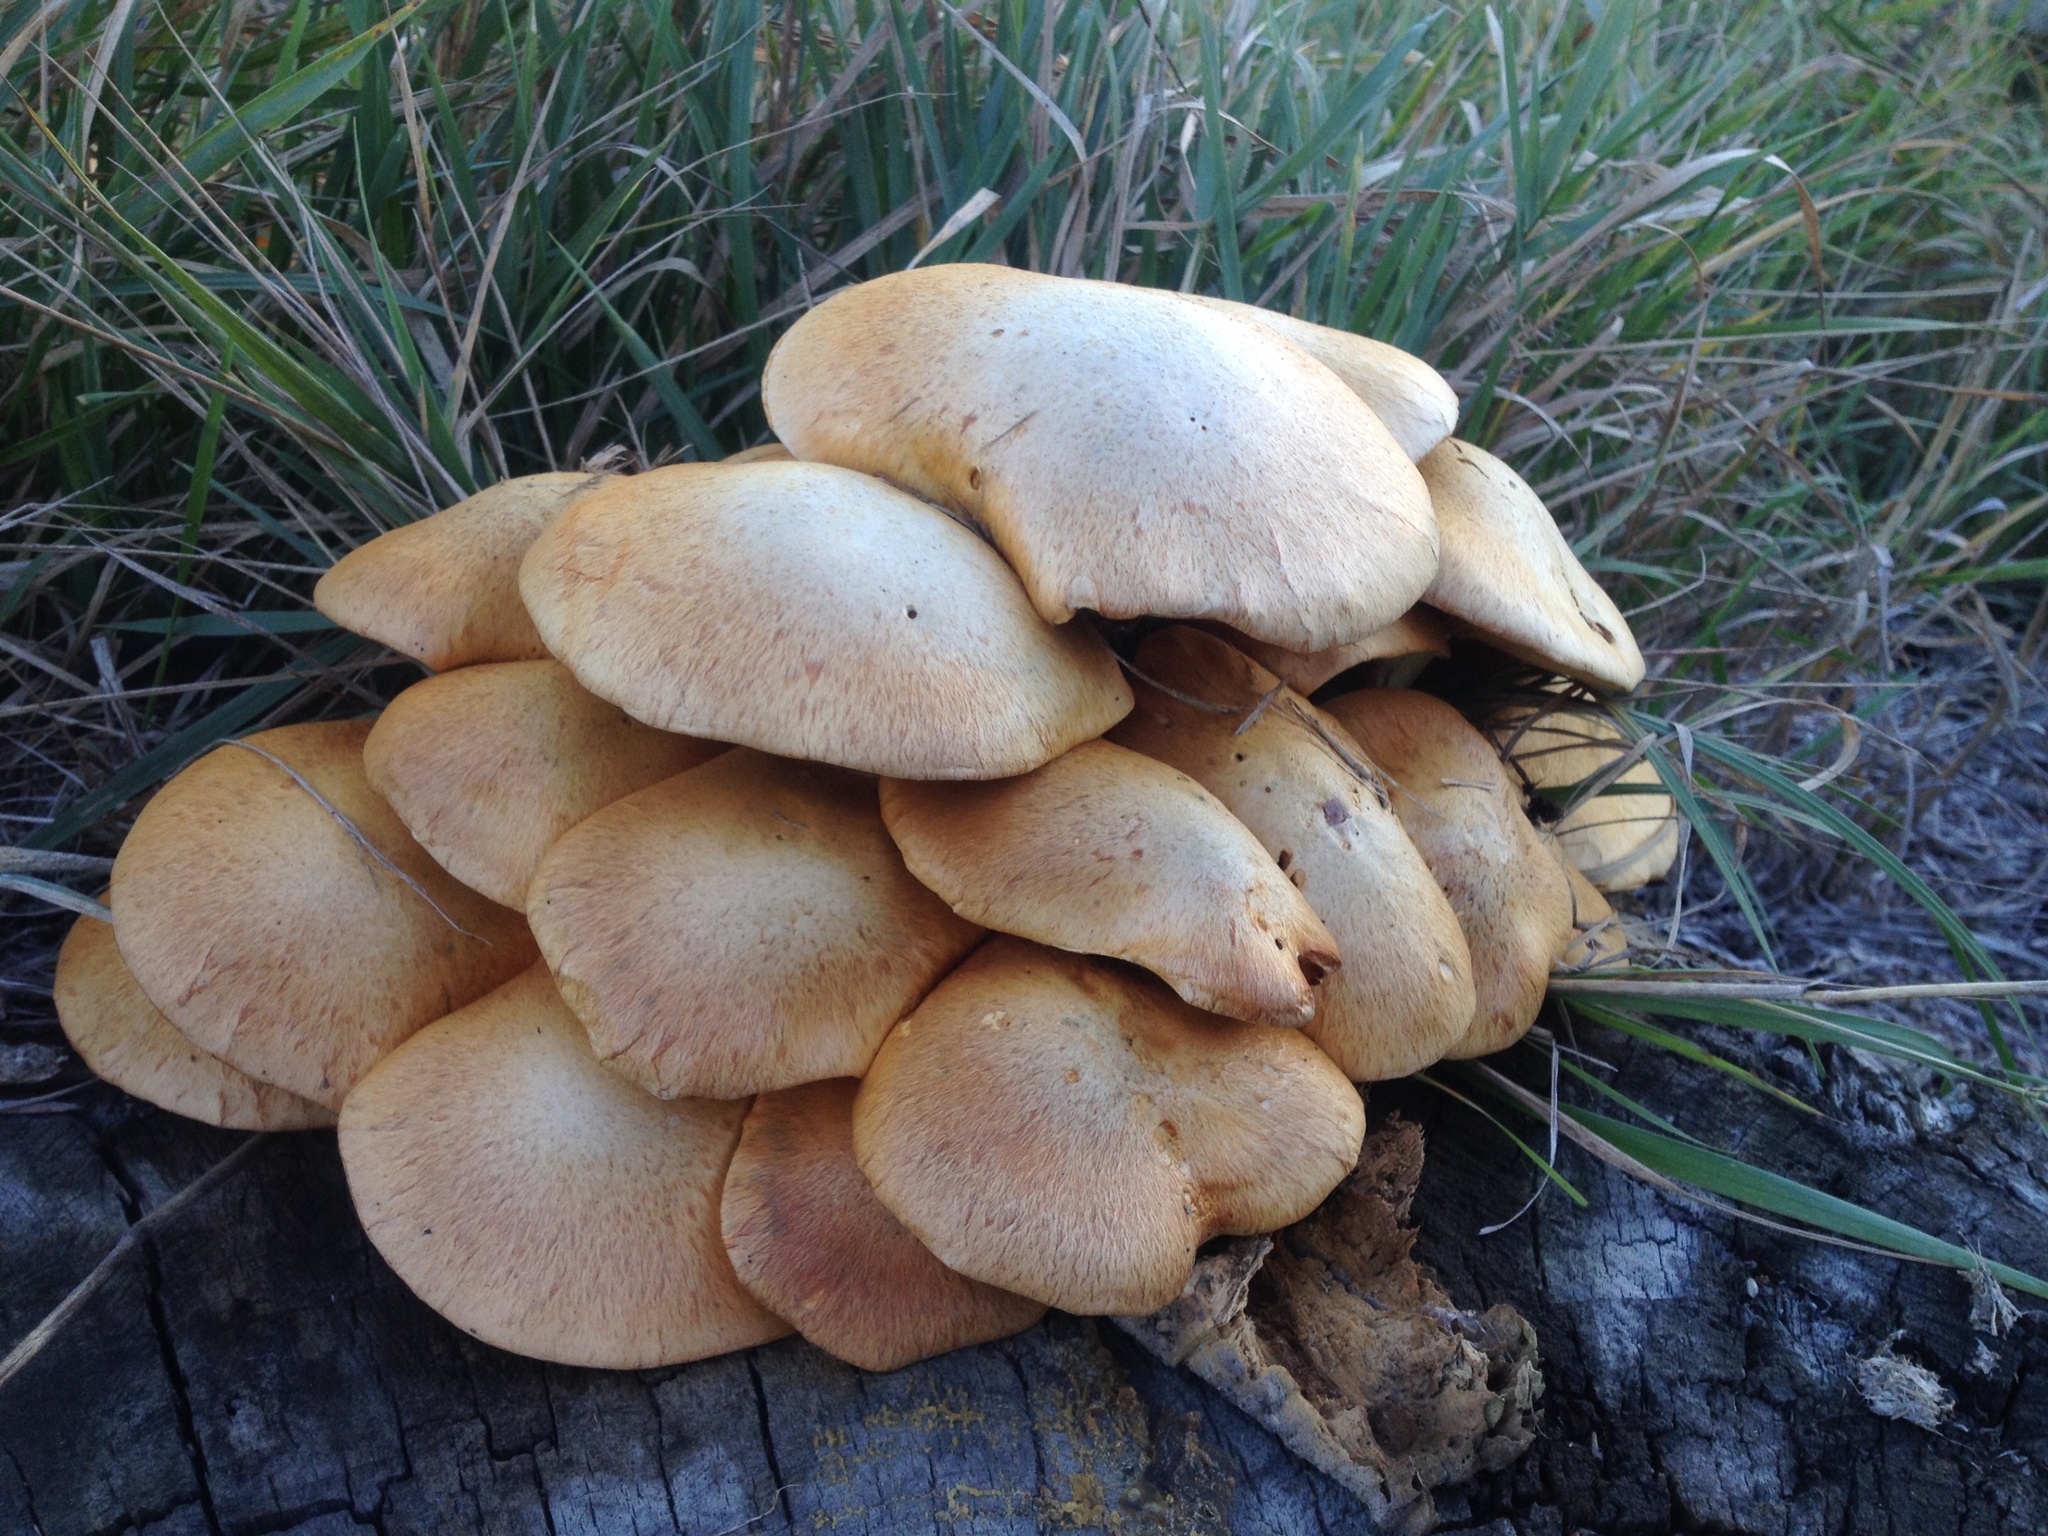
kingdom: Fungi
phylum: Basidiomycota
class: Agaricomycetes
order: Agaricales
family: Hymenogastraceae
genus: Gymnopilus
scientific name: Gymnopilus junonius
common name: Spectacular rustgill
